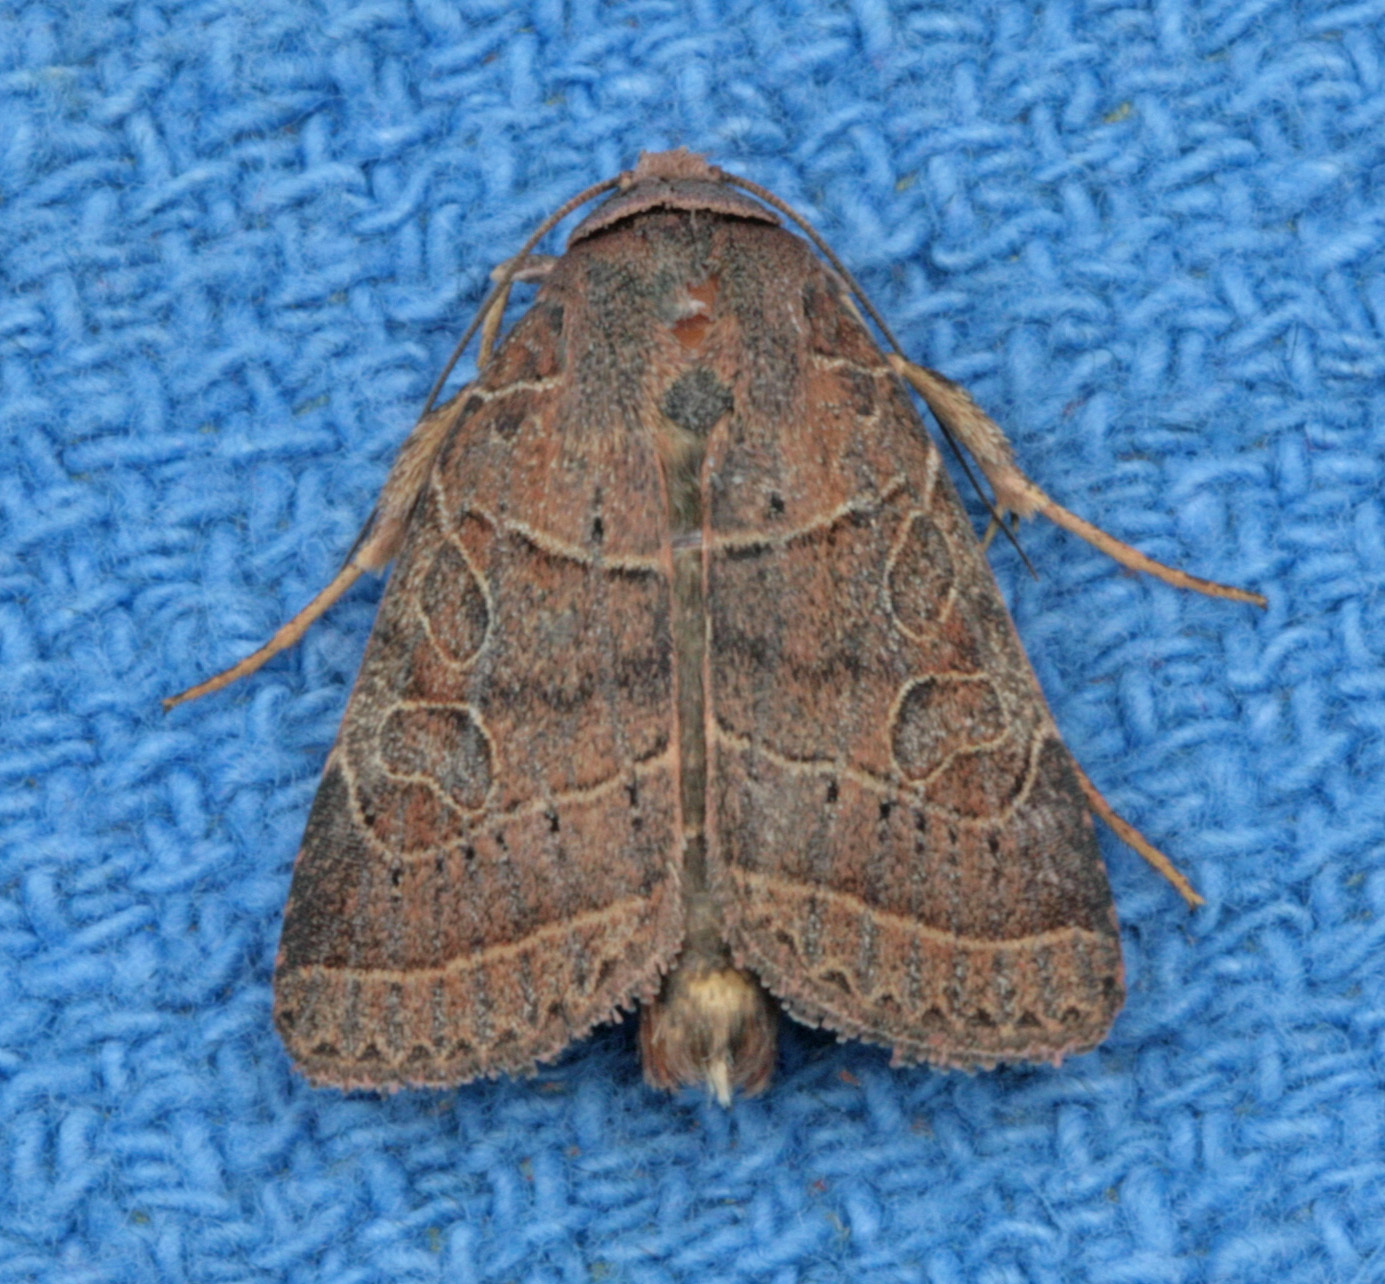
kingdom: Animalia
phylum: Arthropoda
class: Insecta
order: Lepidoptera
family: Noctuidae
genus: Orthodes
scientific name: Orthodes majuscula
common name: Rustic quaker
